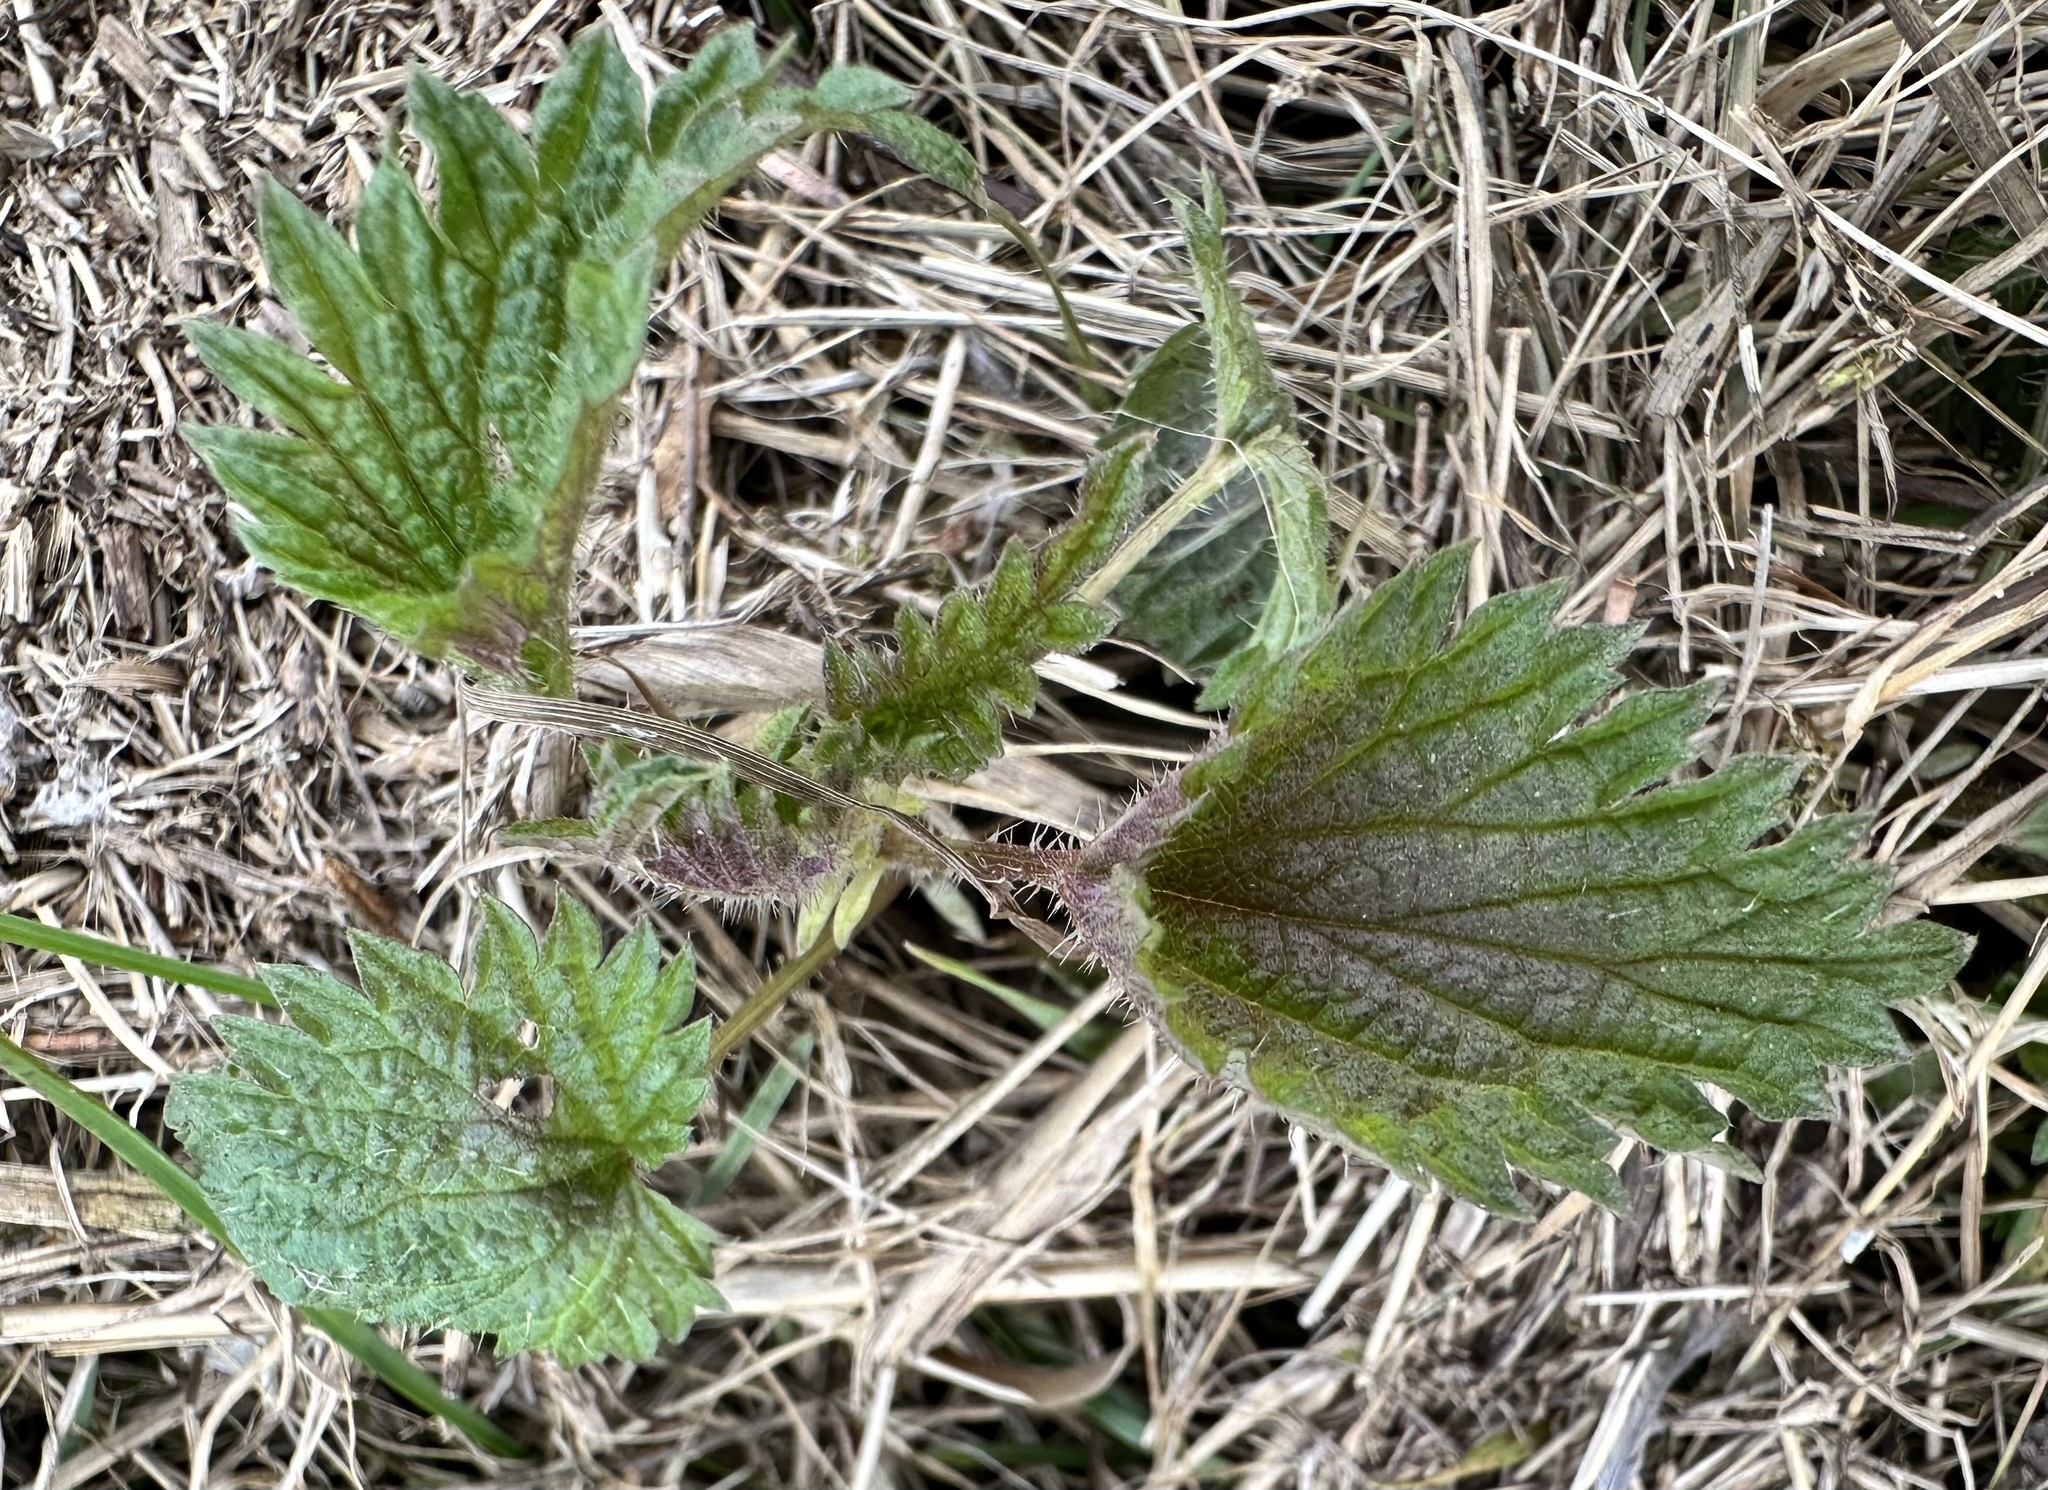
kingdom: Plantae
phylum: Tracheophyta
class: Magnoliopsida
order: Rosales
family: Urticaceae
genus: Urtica
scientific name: Urtica dioica
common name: Common nettle
